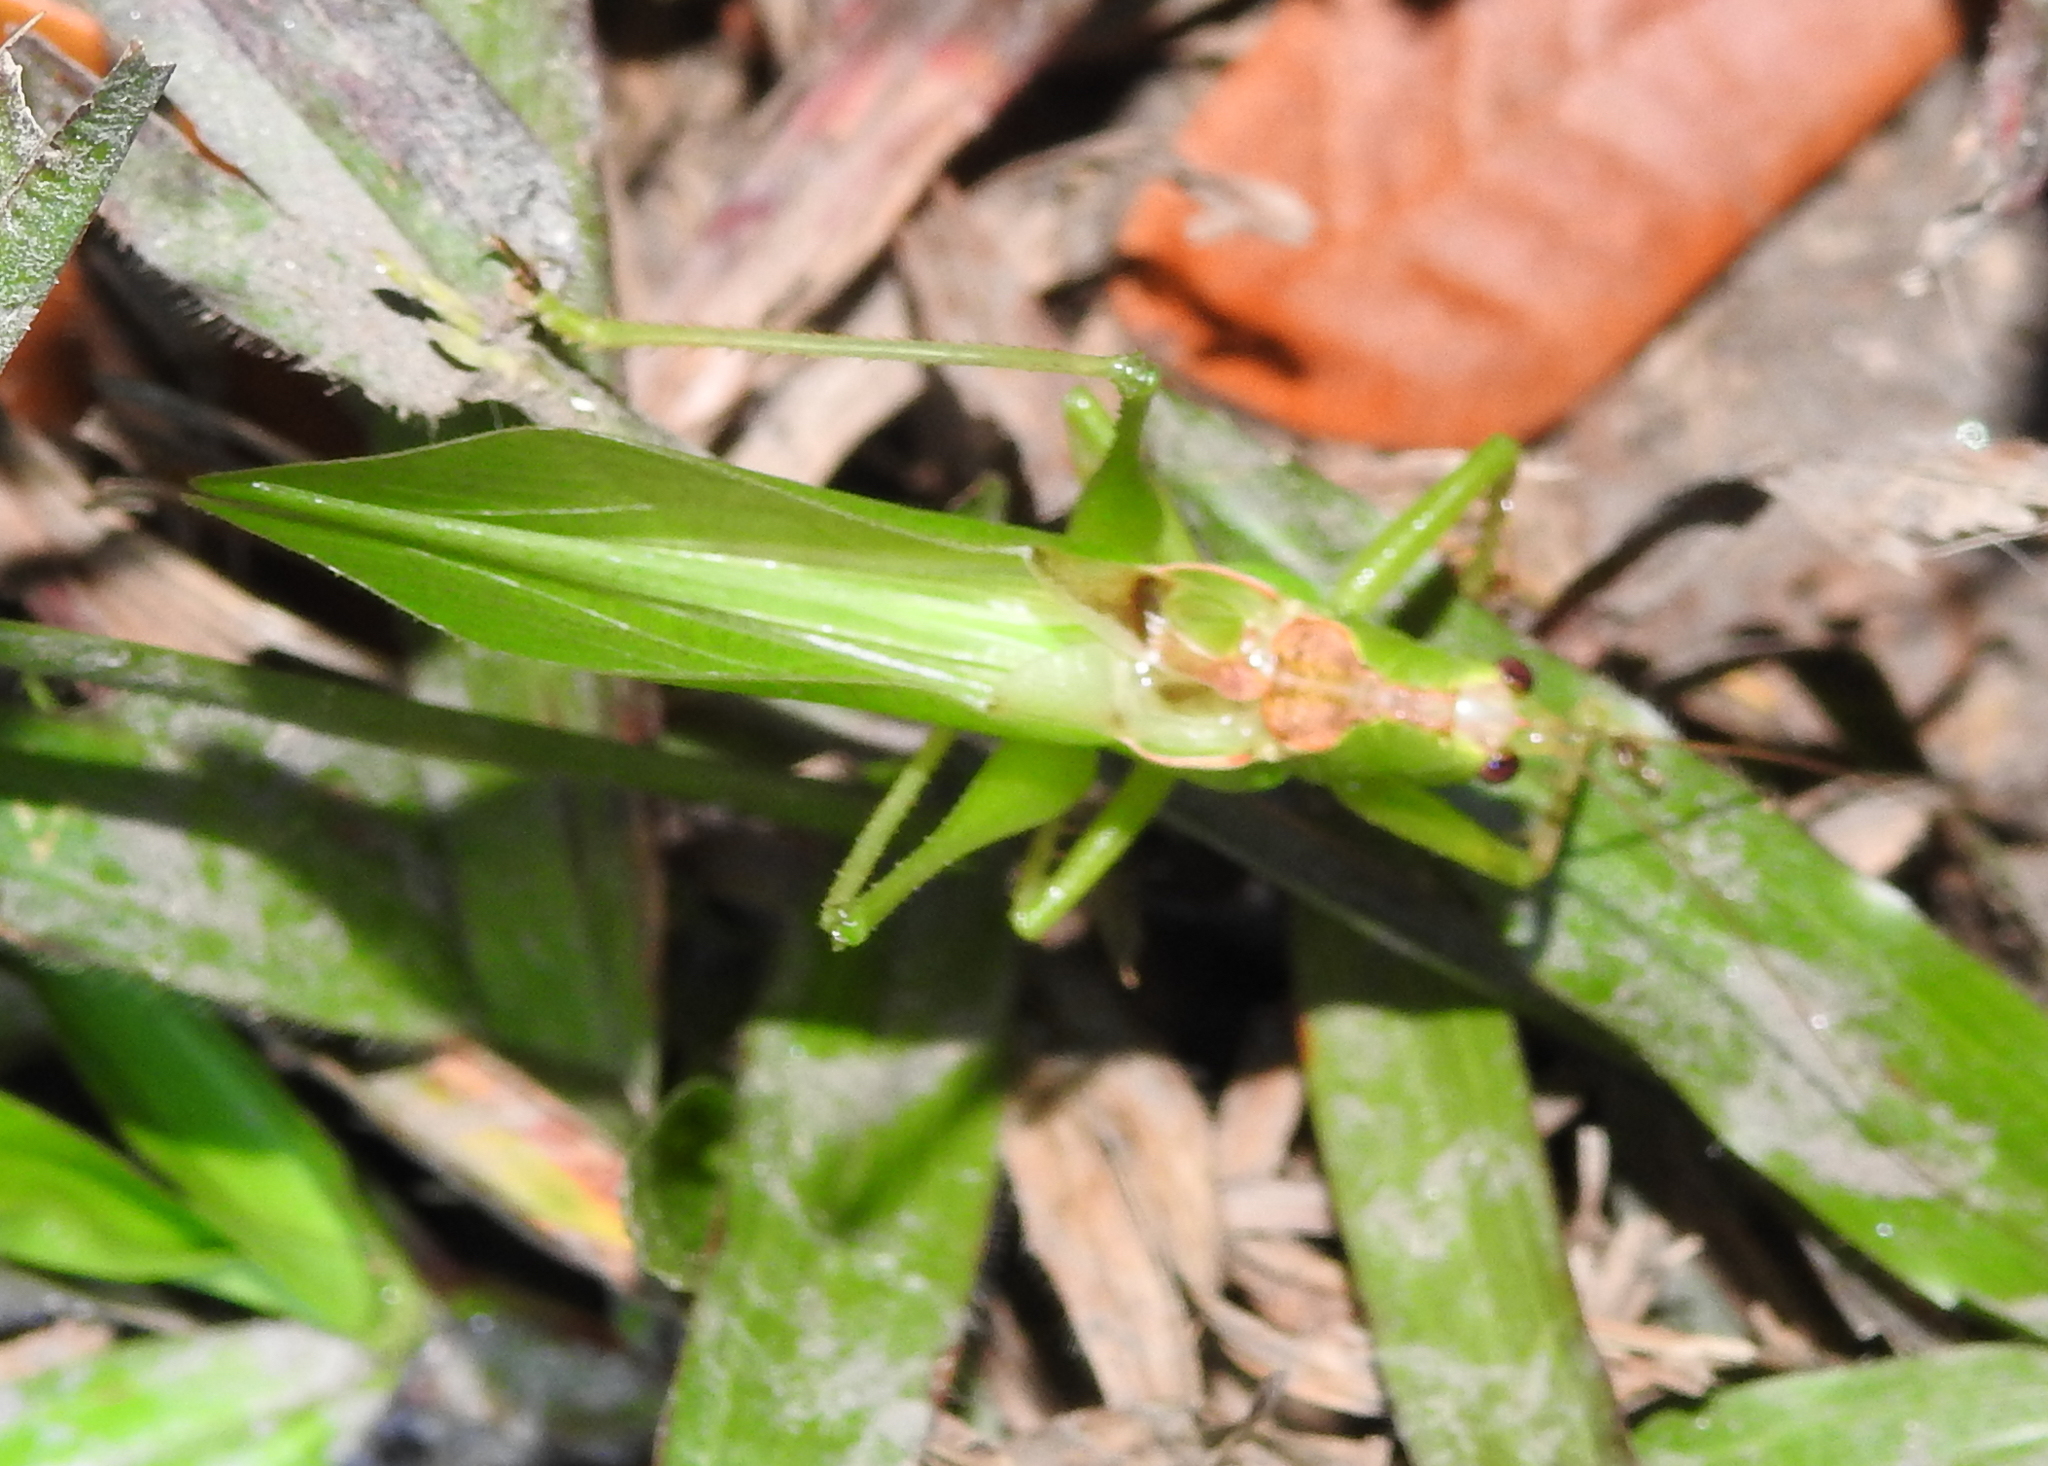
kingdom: Animalia
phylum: Arthropoda
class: Insecta
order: Orthoptera
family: Tettigoniidae
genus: Hexacentrus
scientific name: Hexacentrus unicolor
